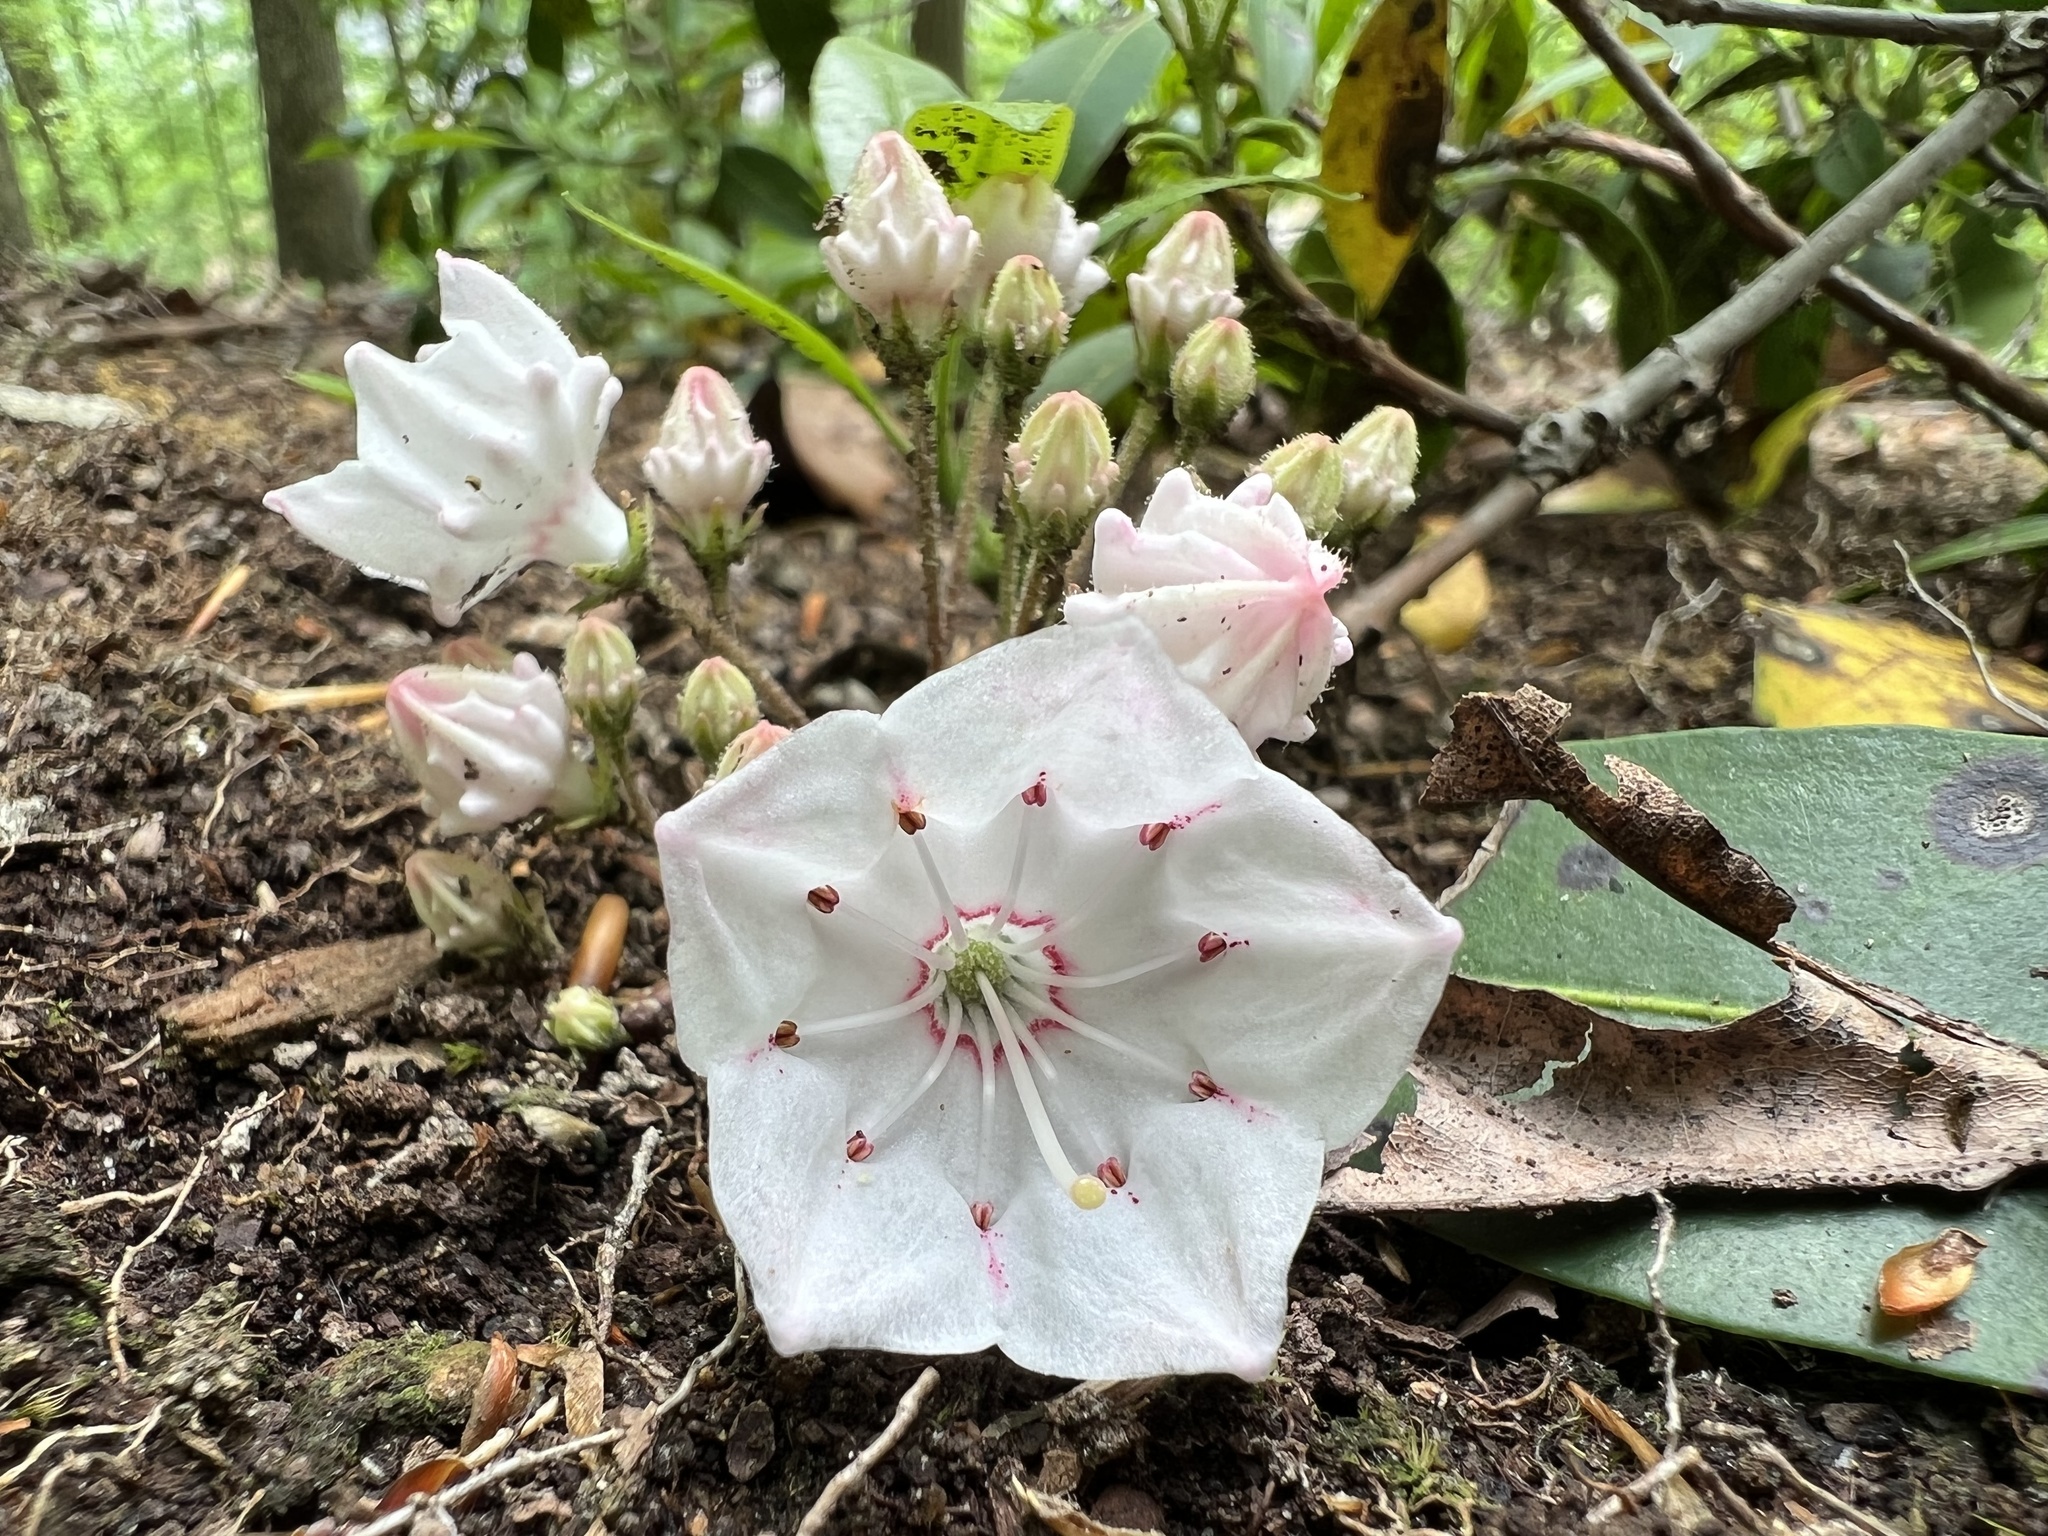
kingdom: Plantae
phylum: Tracheophyta
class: Magnoliopsida
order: Ericales
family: Ericaceae
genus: Kalmia
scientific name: Kalmia latifolia
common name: Mountain-laurel
